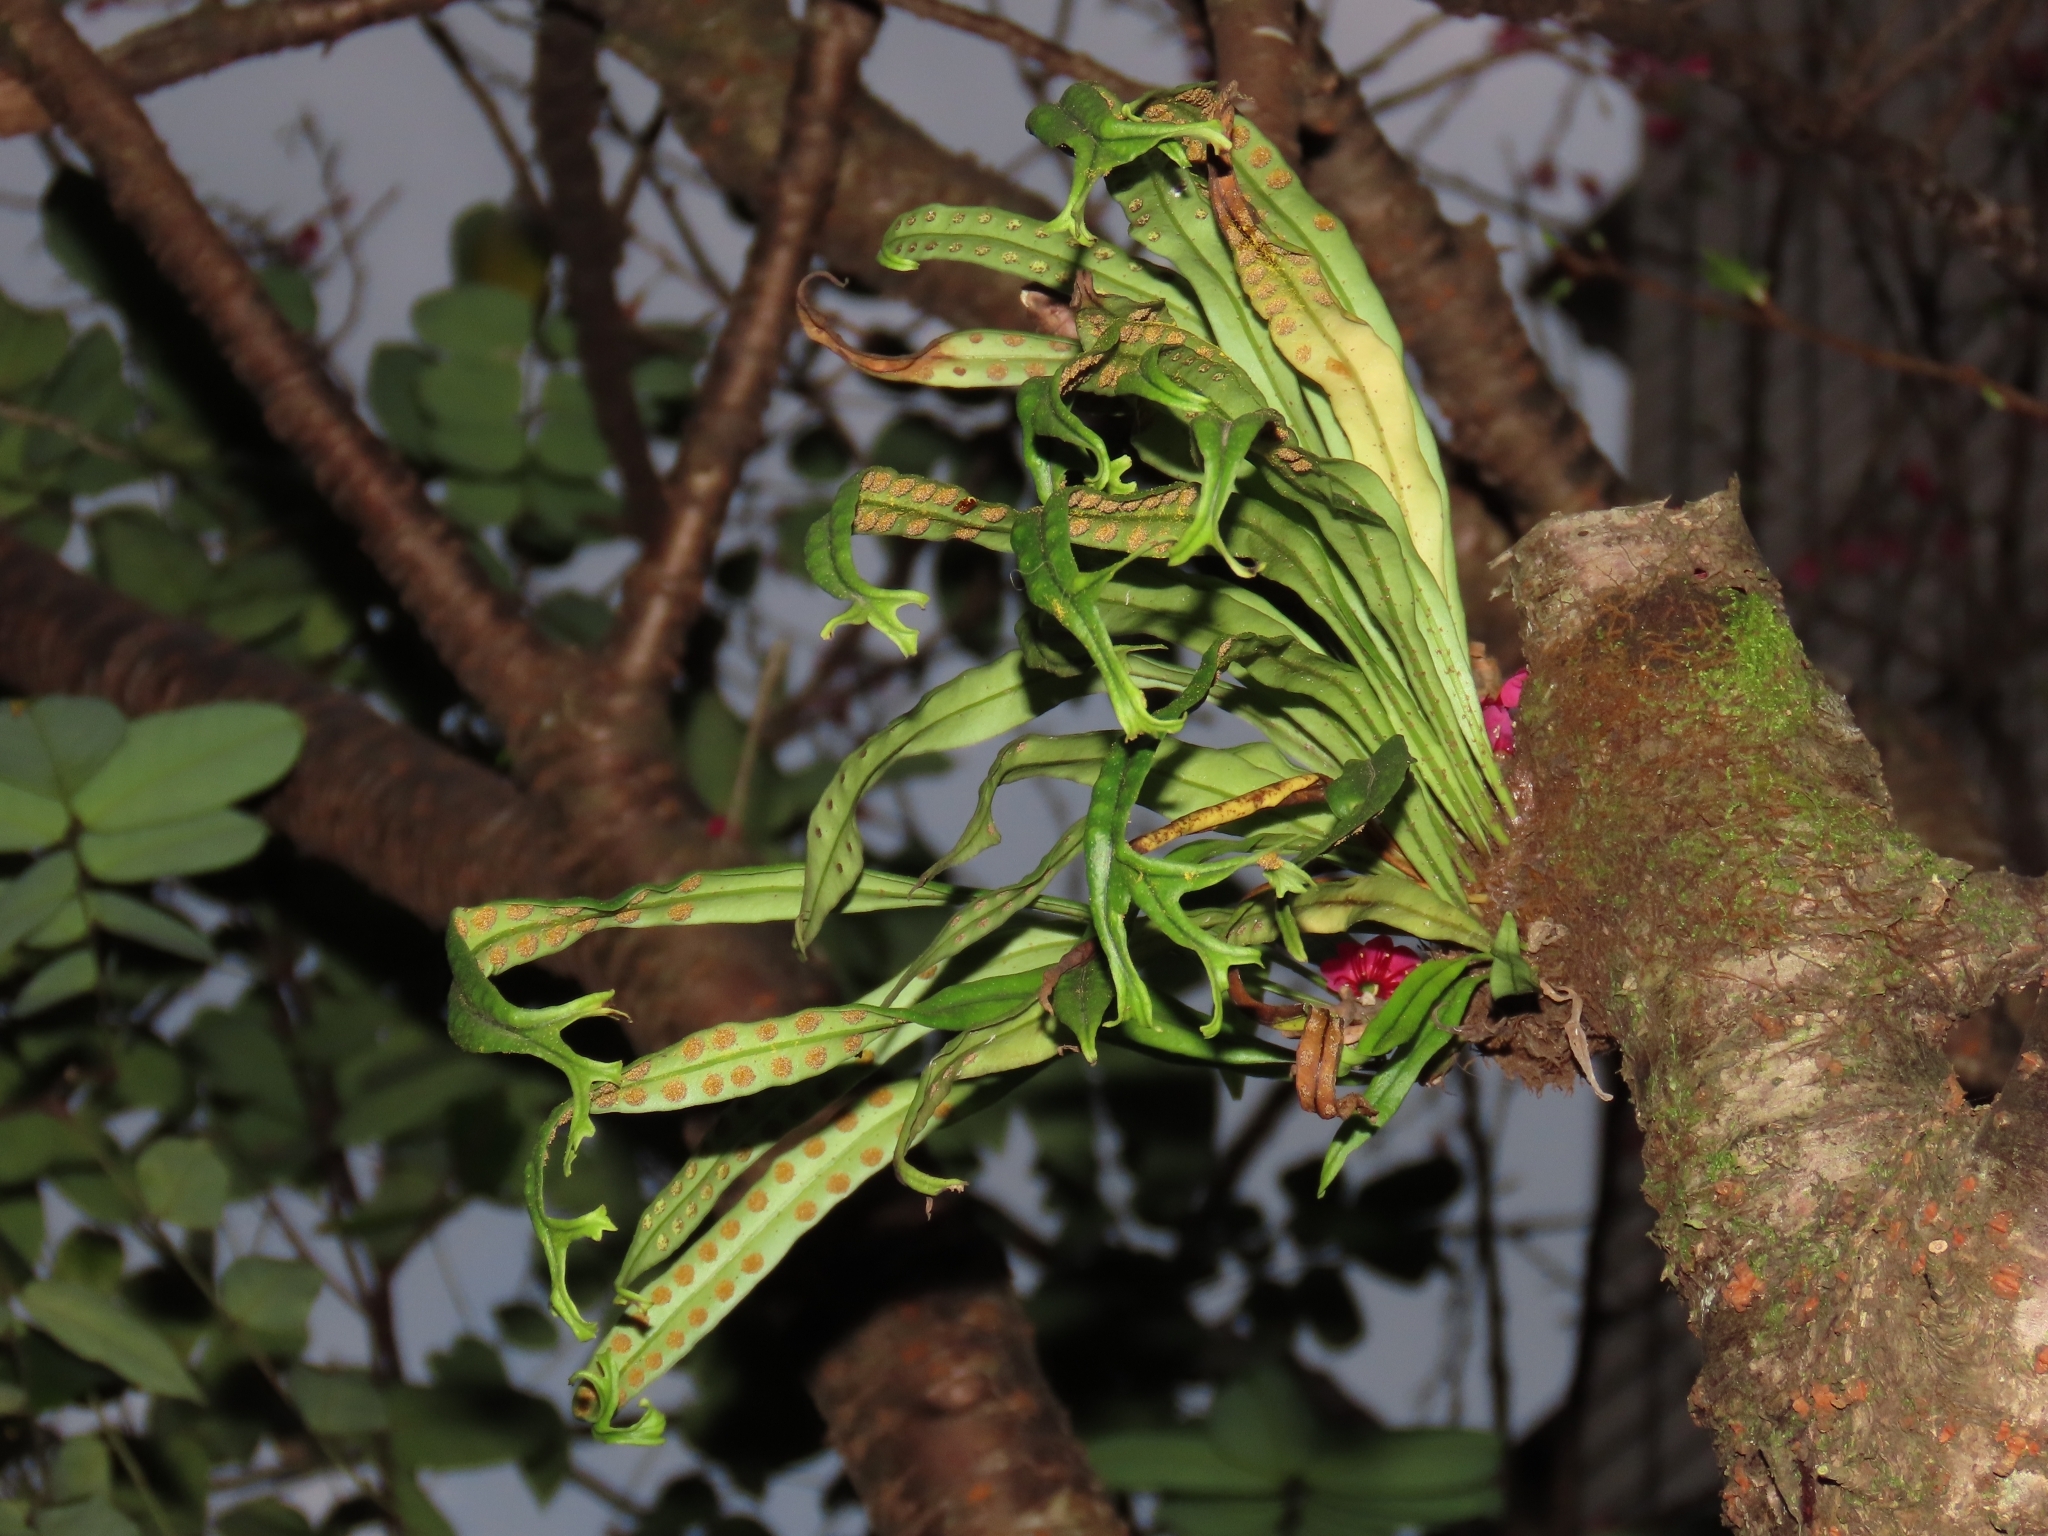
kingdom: Plantae
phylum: Tracheophyta
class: Polypodiopsida
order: Polypodiales
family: Polypodiaceae
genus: Lepisorus
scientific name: Lepisorus thunbergianus
